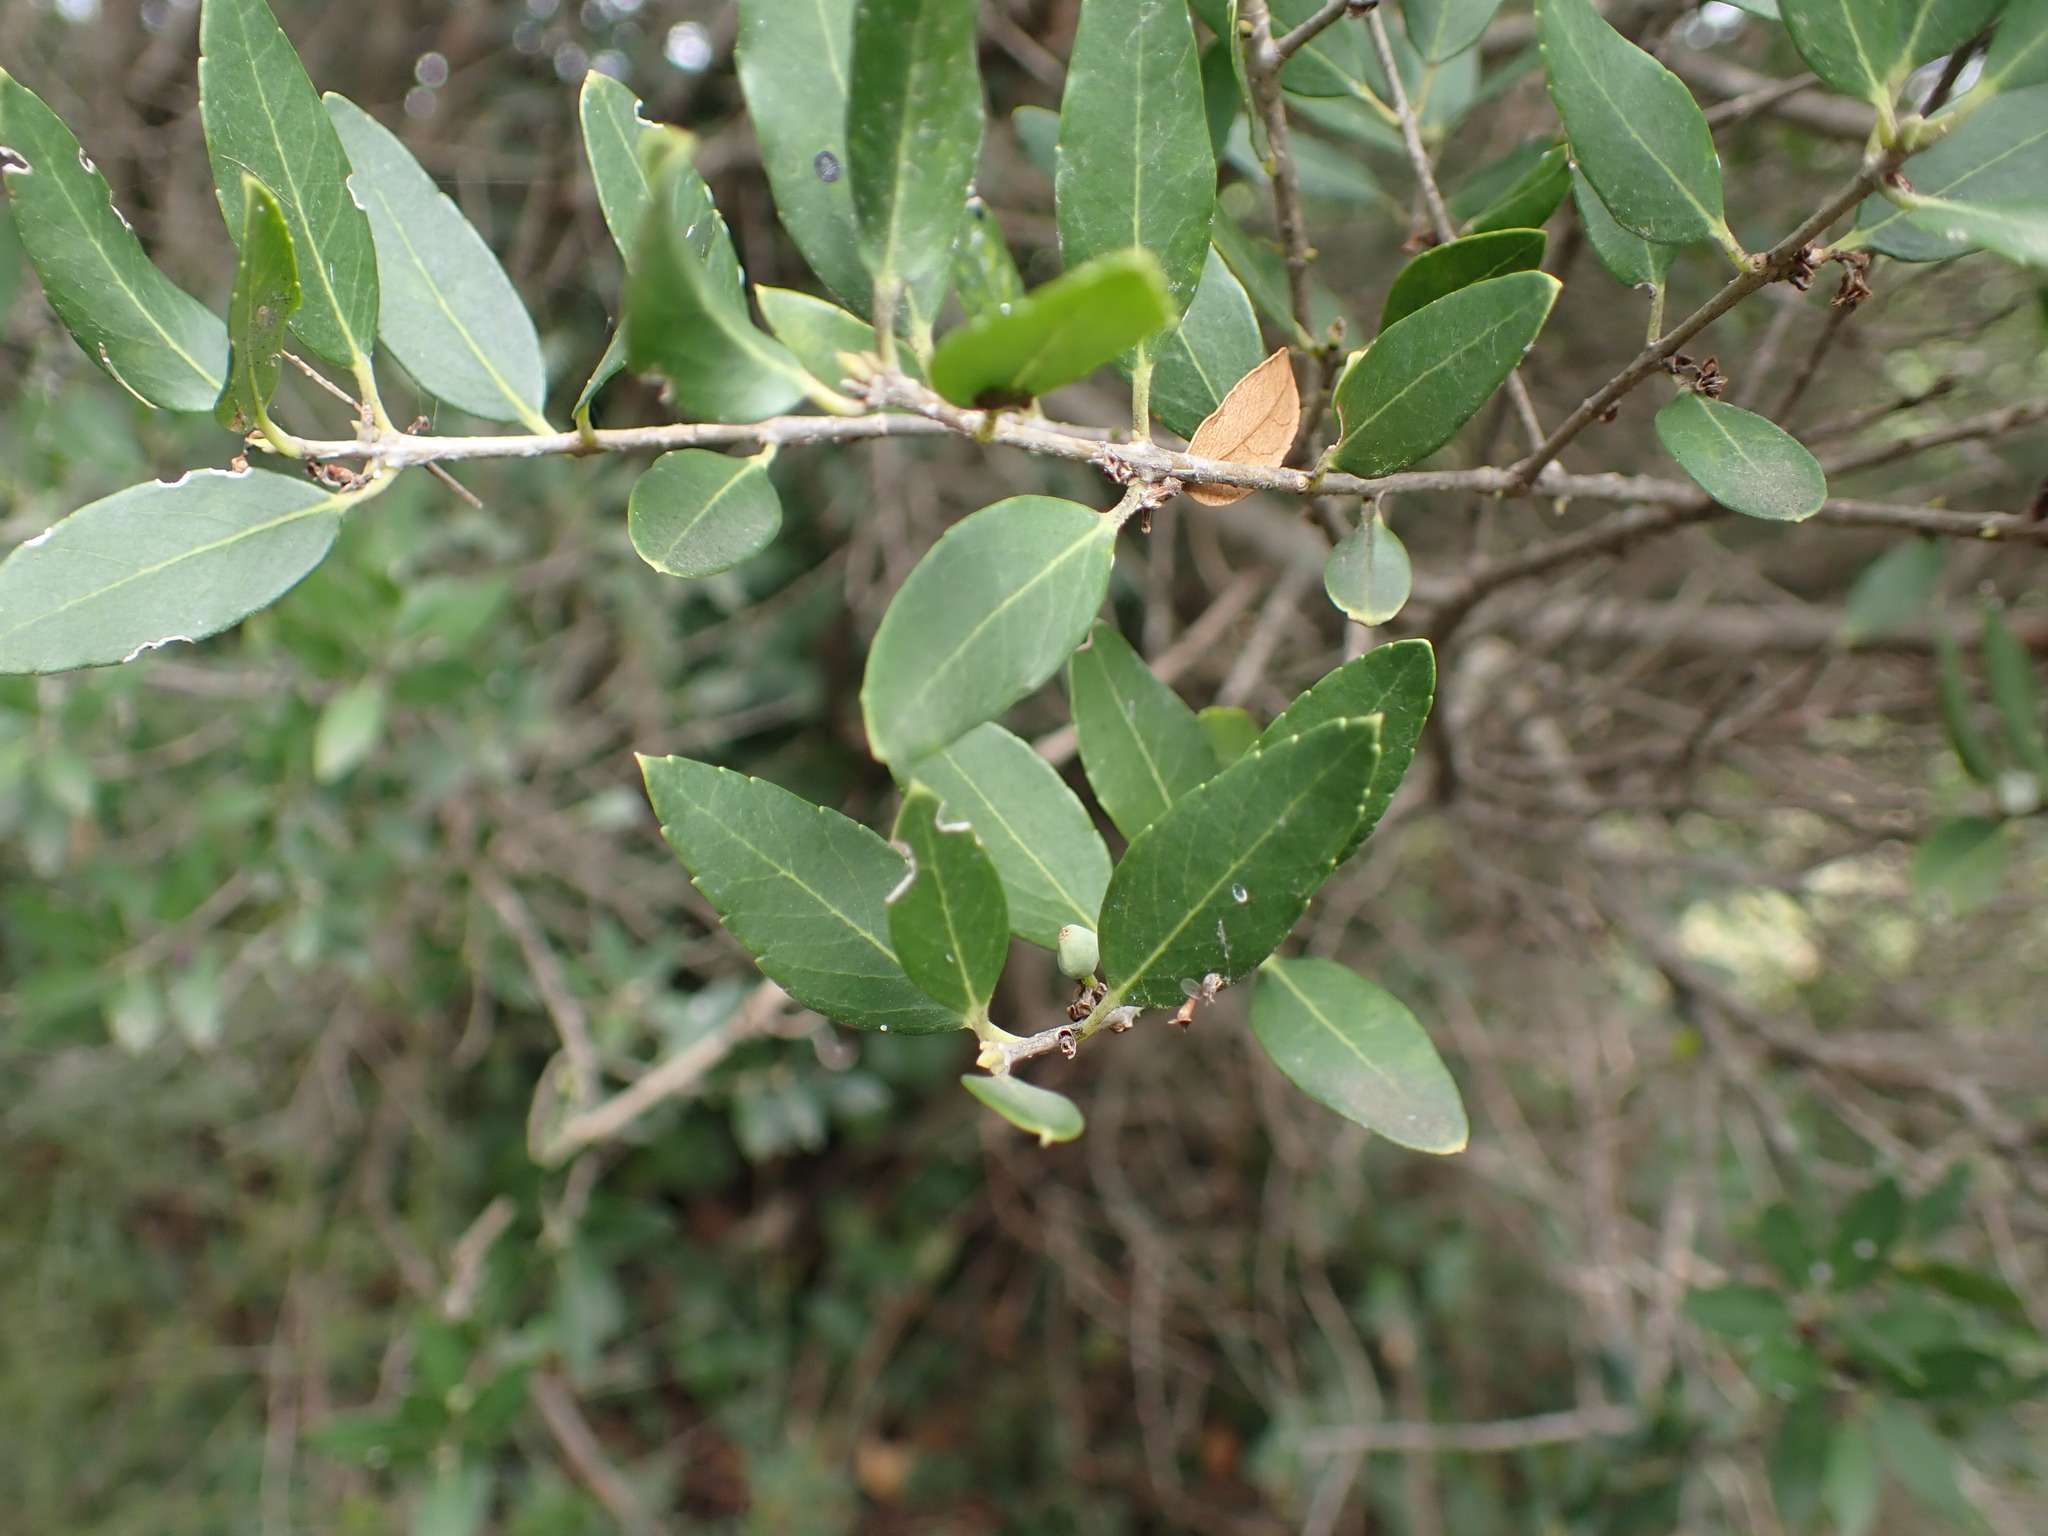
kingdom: Plantae
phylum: Tracheophyta
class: Magnoliopsida
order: Lamiales
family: Oleaceae
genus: Phillyrea
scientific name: Phillyrea latifolia
